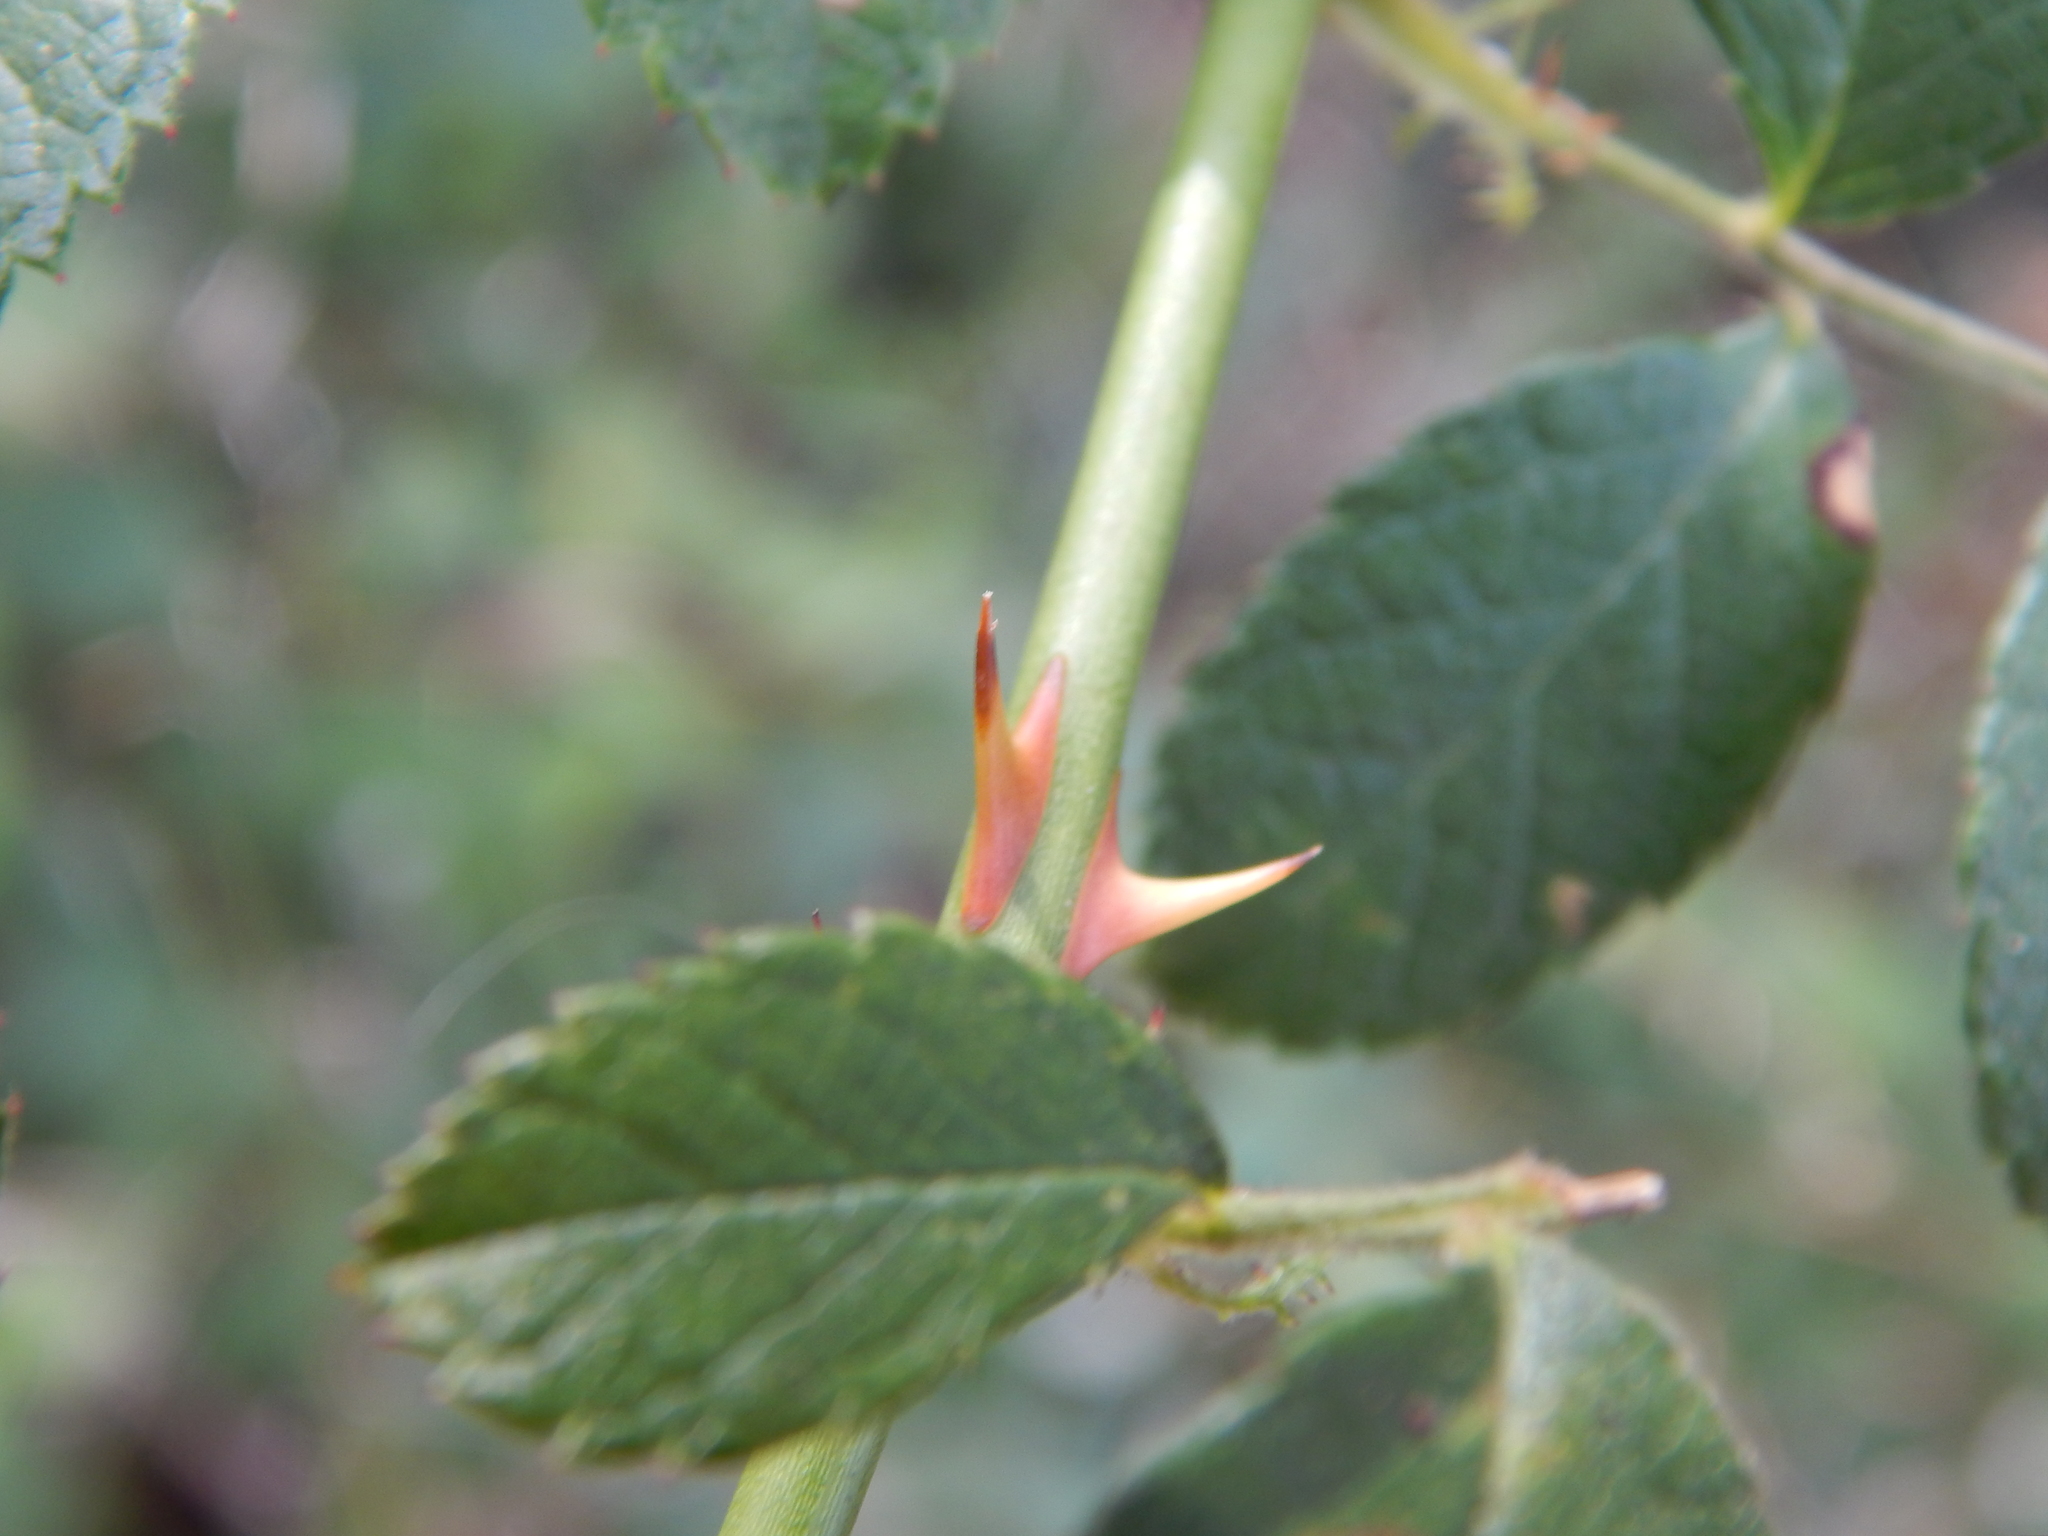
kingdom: Plantae
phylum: Tracheophyta
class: Magnoliopsida
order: Rosales
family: Rosaceae
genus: Rosa
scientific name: Rosa multiflora
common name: Multiflora rose
